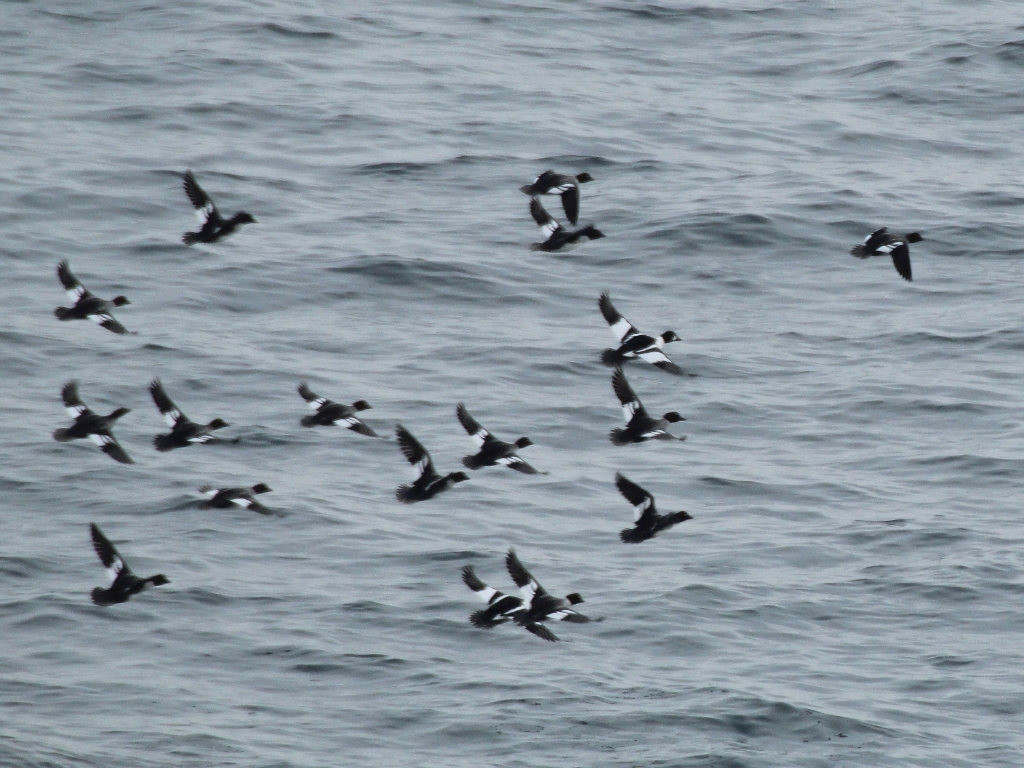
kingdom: Animalia
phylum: Chordata
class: Aves
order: Anseriformes
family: Anatidae
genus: Bucephala
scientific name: Bucephala clangula
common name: Common goldeneye
